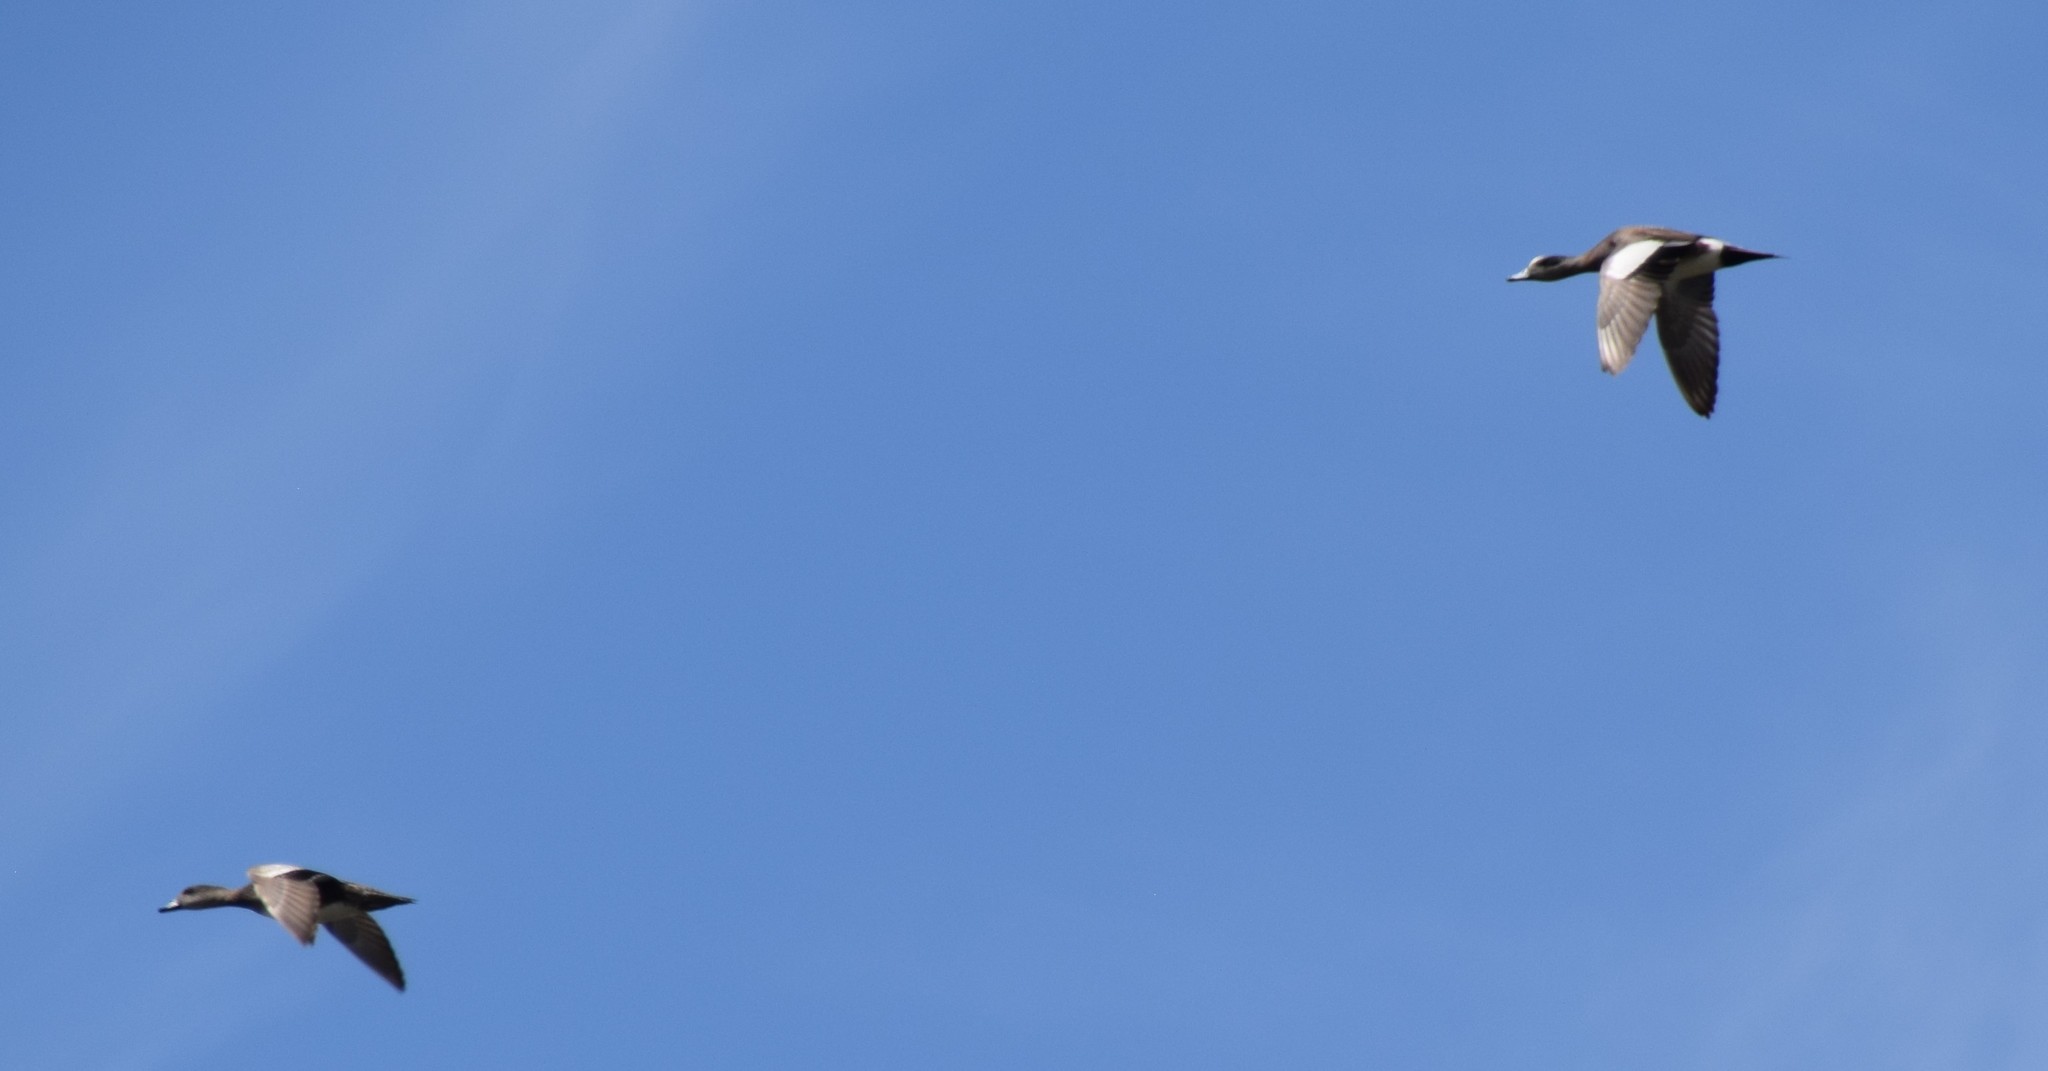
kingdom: Animalia
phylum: Chordata
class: Aves
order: Anseriformes
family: Anatidae
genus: Mareca
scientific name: Mareca americana
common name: American wigeon
